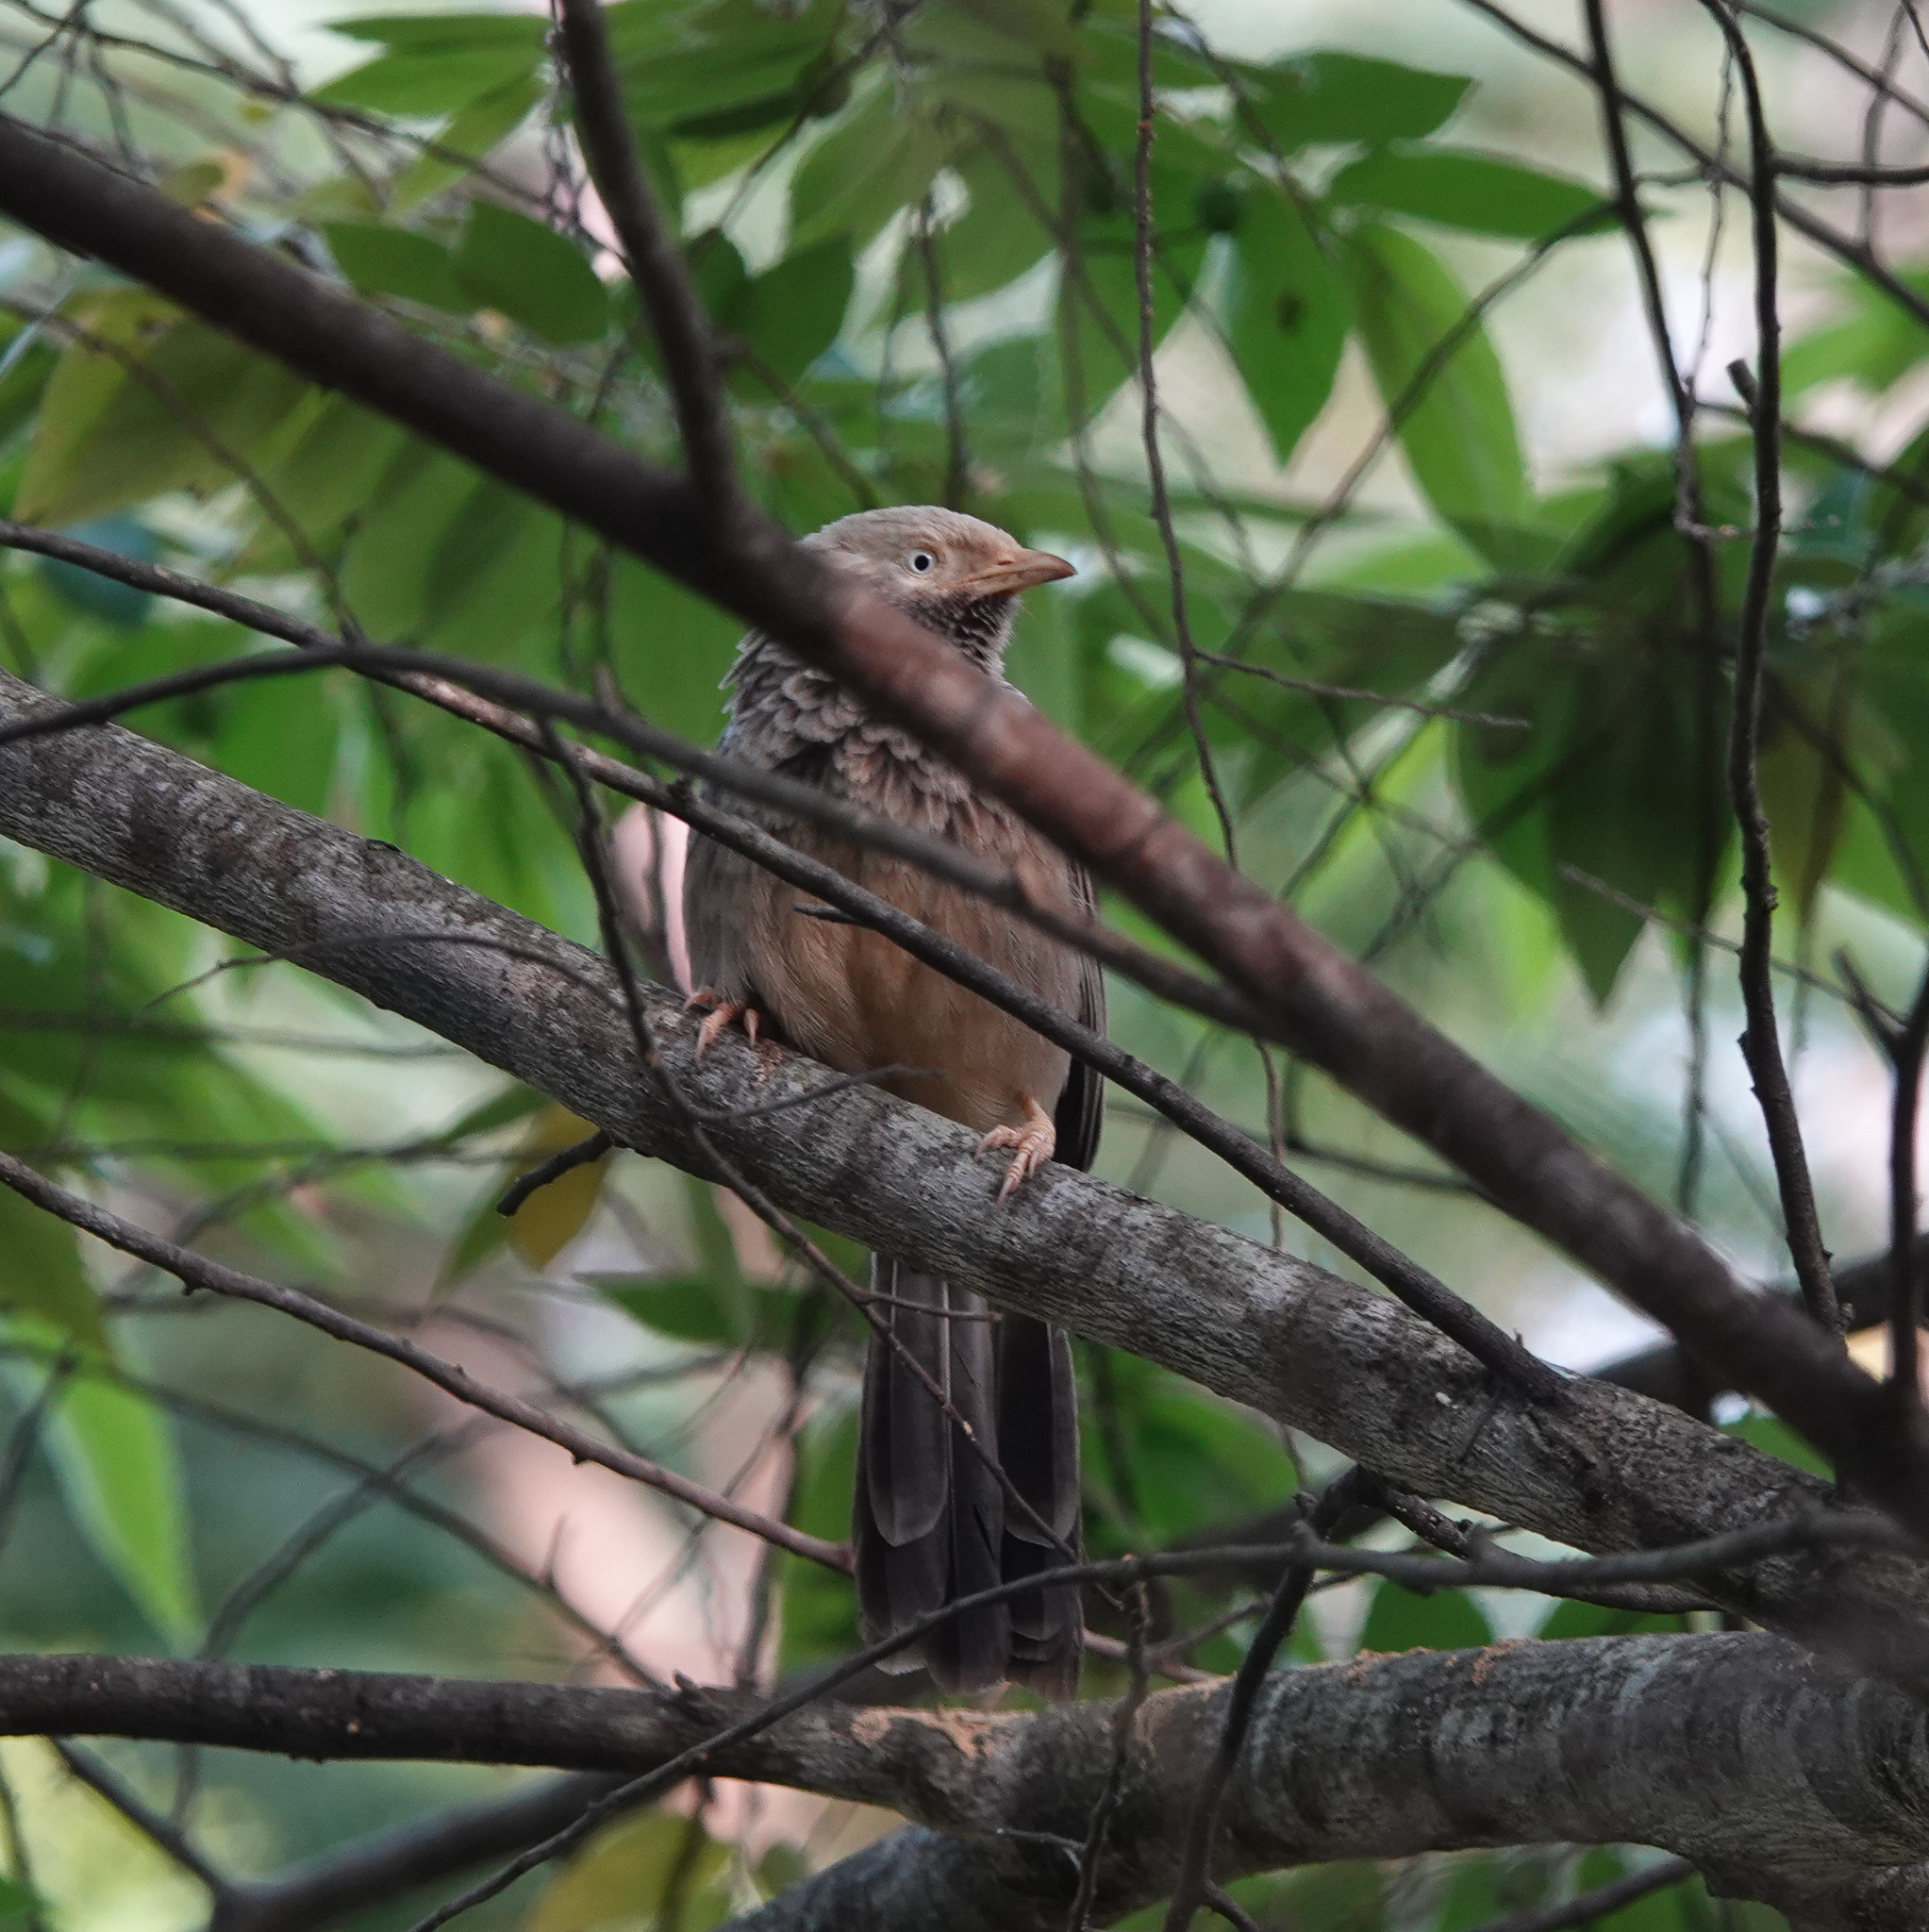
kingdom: Animalia
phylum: Chordata
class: Aves
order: Passeriformes
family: Leiothrichidae
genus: Turdoides
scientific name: Turdoides affinis
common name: Yellow-billed babbler
